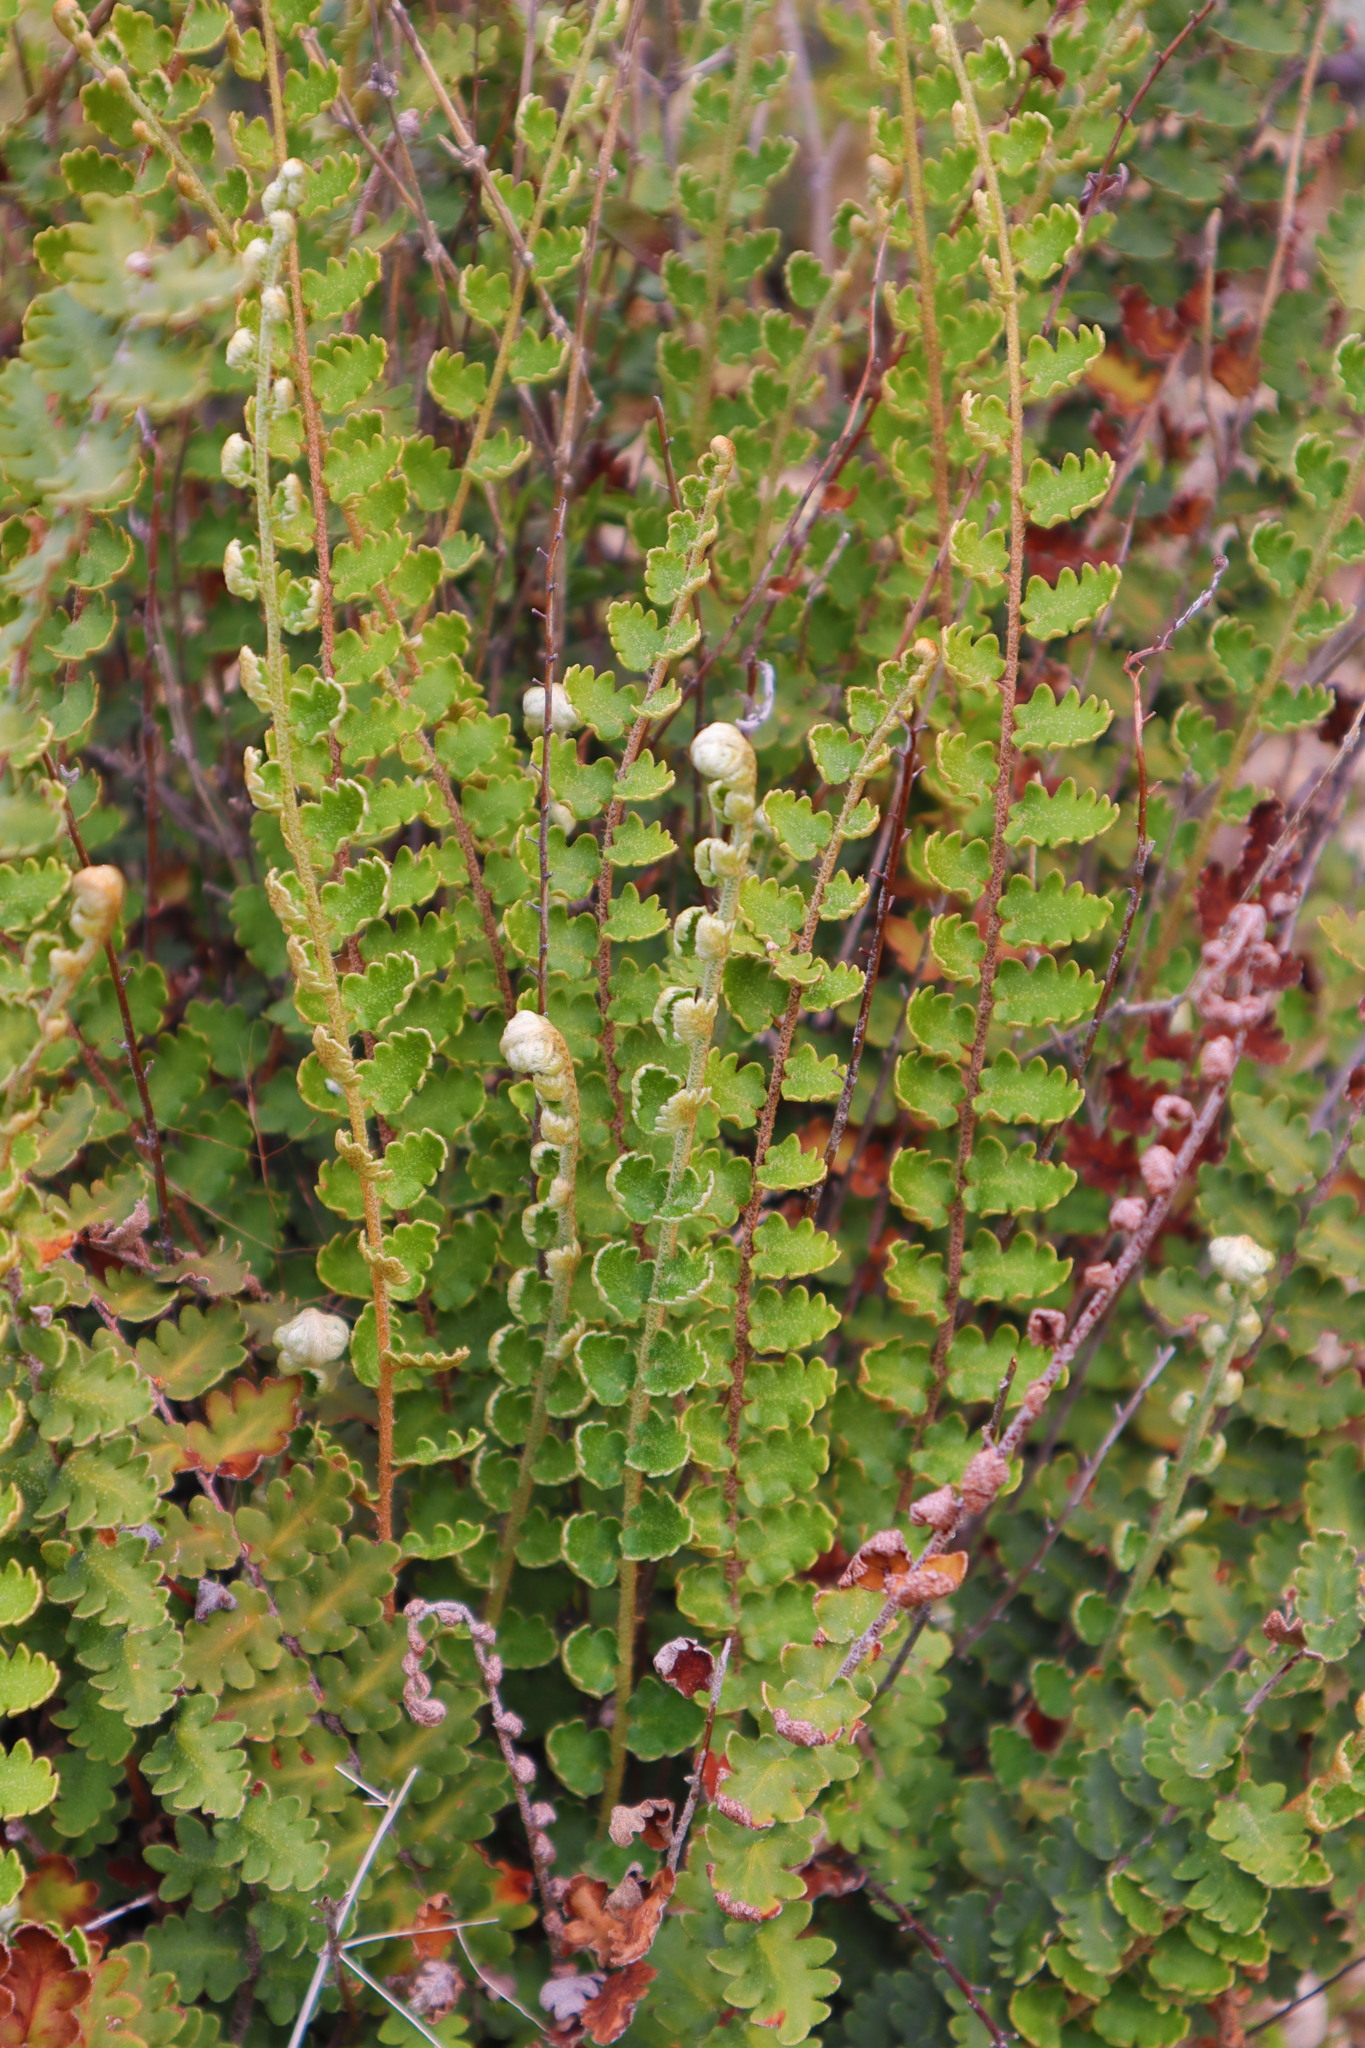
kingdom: Plantae
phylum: Tracheophyta
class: Polypodiopsida
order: Polypodiales
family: Pteridaceae
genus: Astrolepis
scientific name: Astrolepis sinuata
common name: Wavy scaly cloakfern
